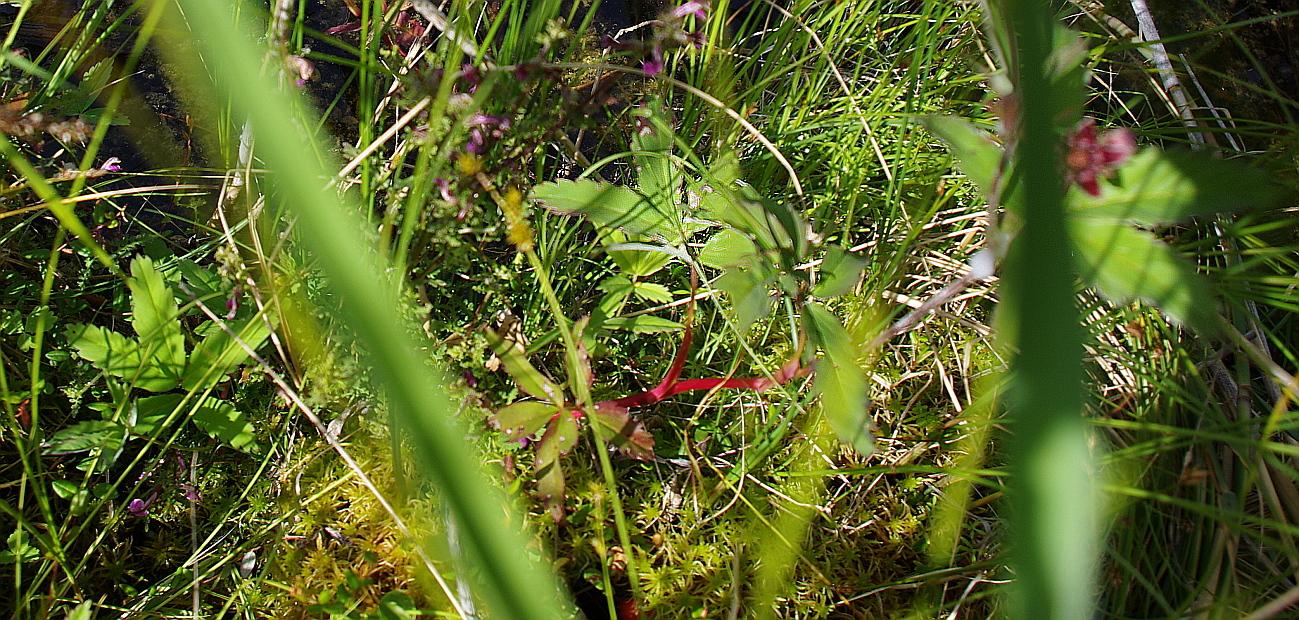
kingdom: Plantae
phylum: Tracheophyta
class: Magnoliopsida
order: Rosales
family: Rosaceae
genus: Comarum
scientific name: Comarum palustre
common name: Marsh cinquefoil
